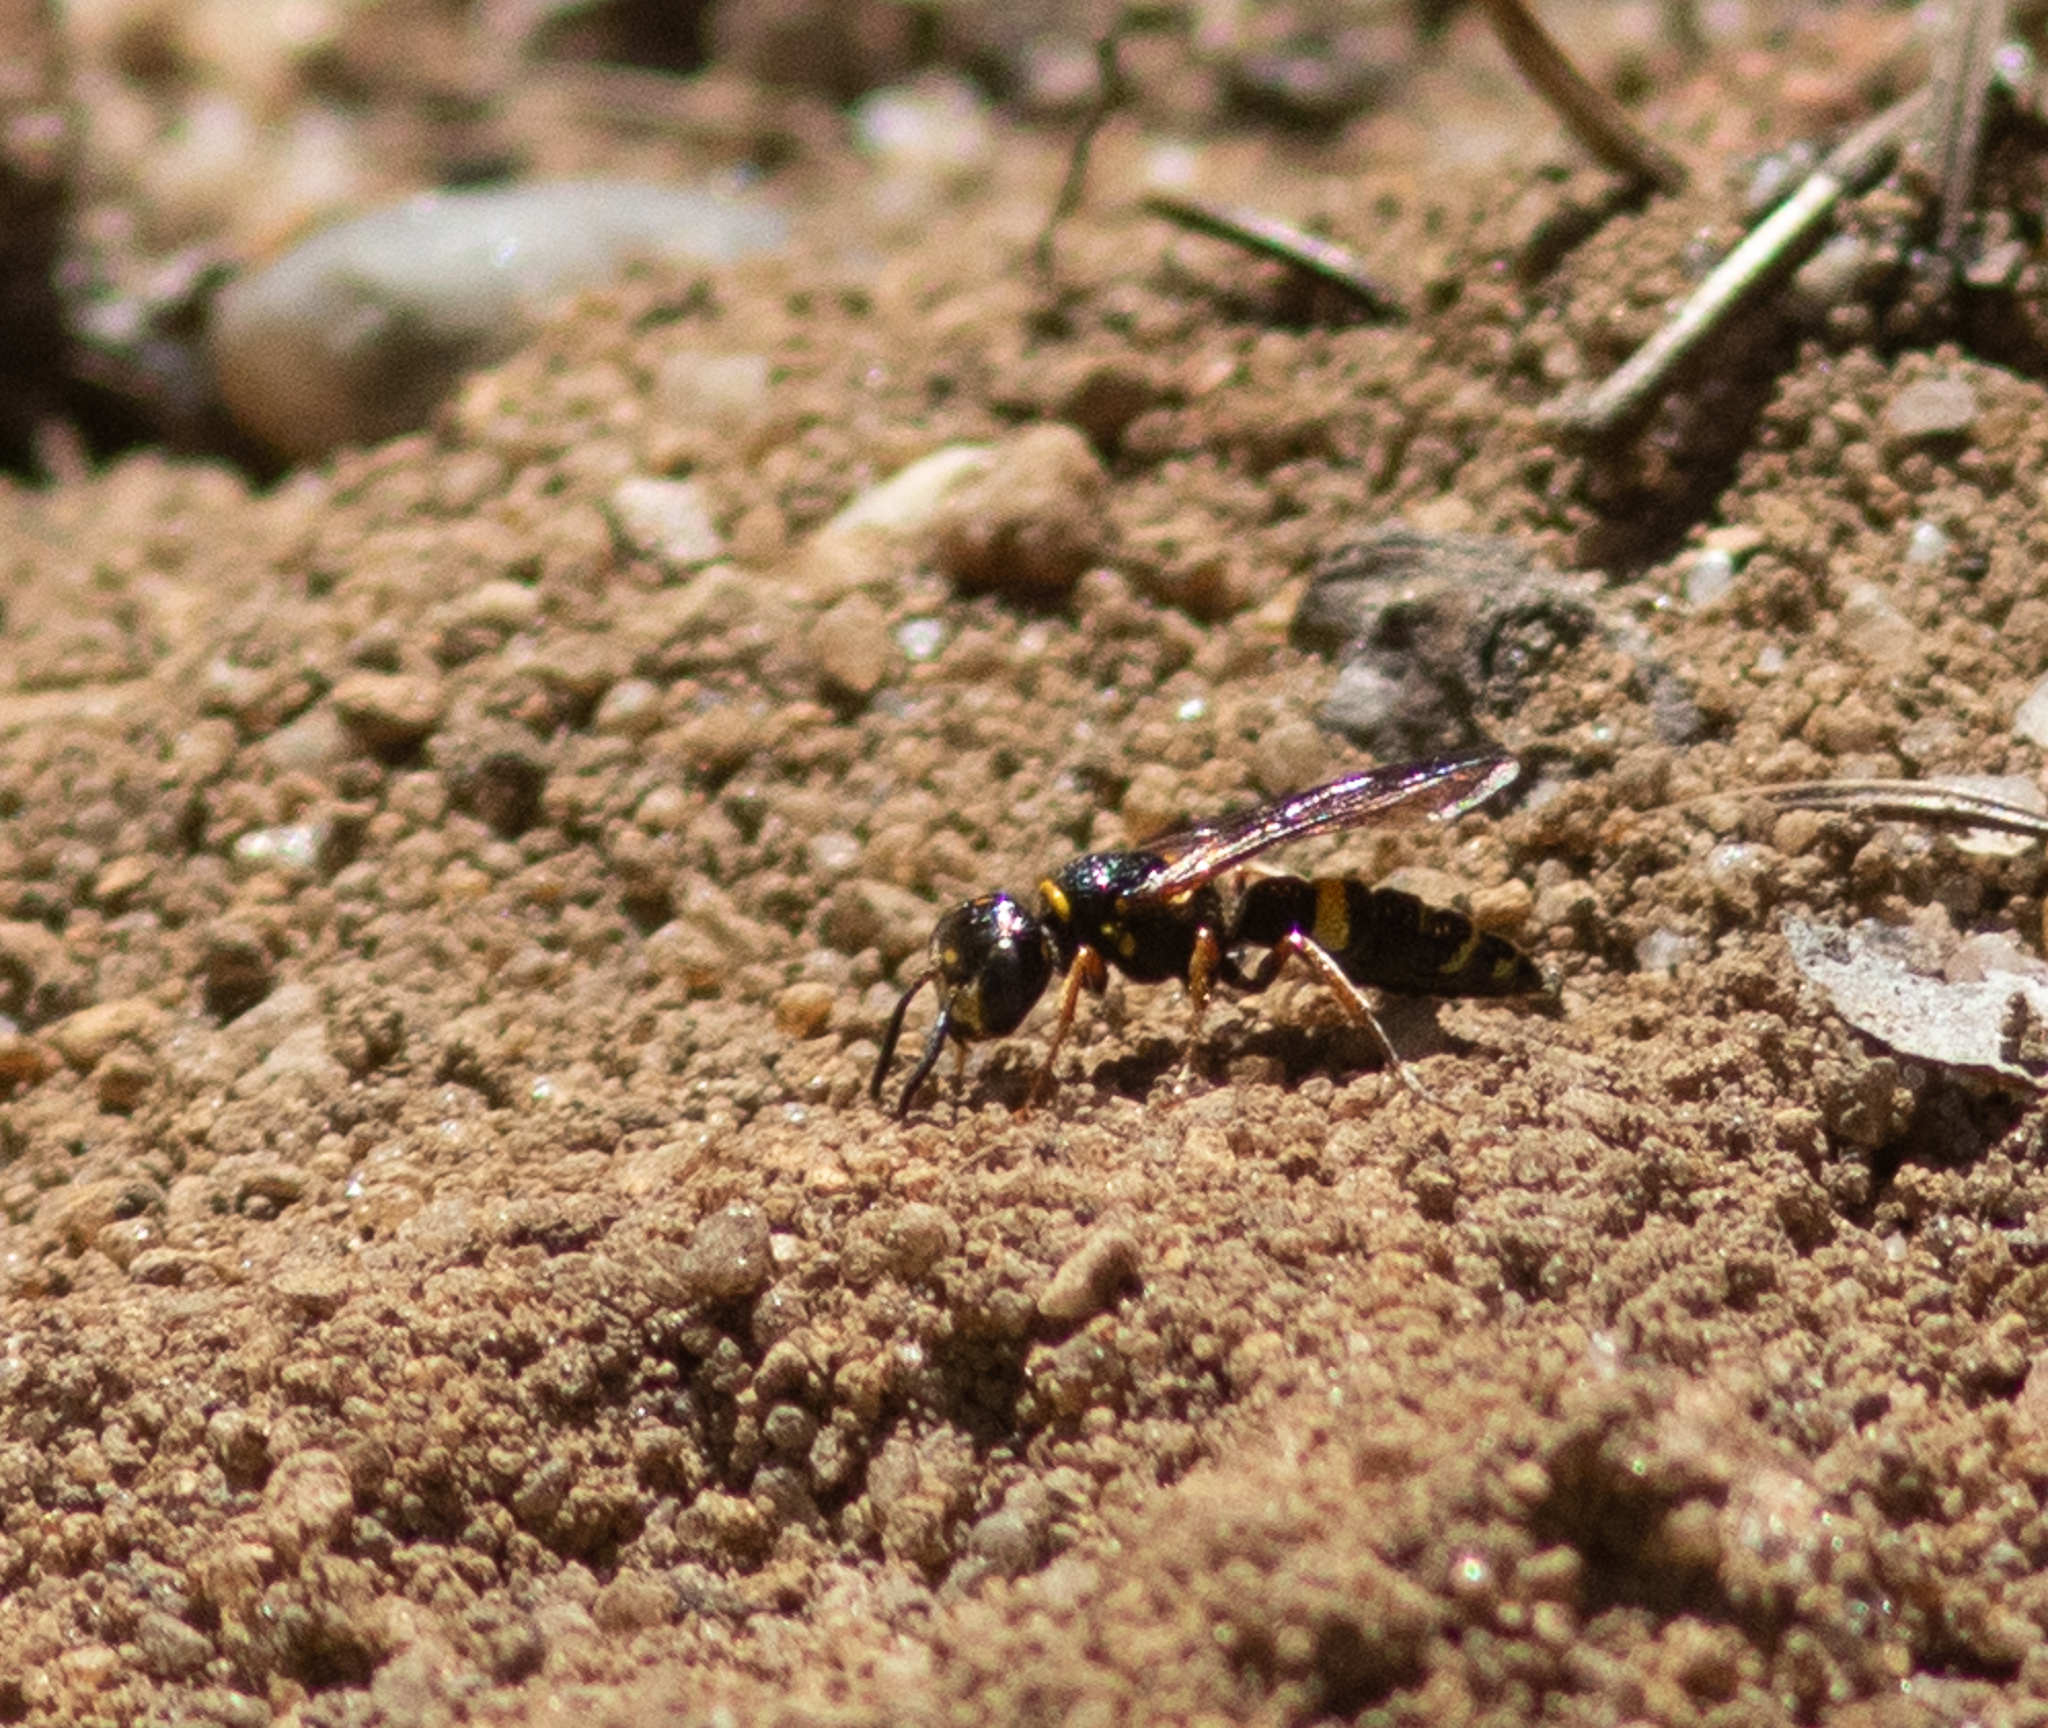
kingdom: Animalia
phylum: Arthropoda
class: Insecta
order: Hymenoptera
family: Crabronidae
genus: Philanthus
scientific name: Philanthus gibbosus
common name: Humped beewolf
